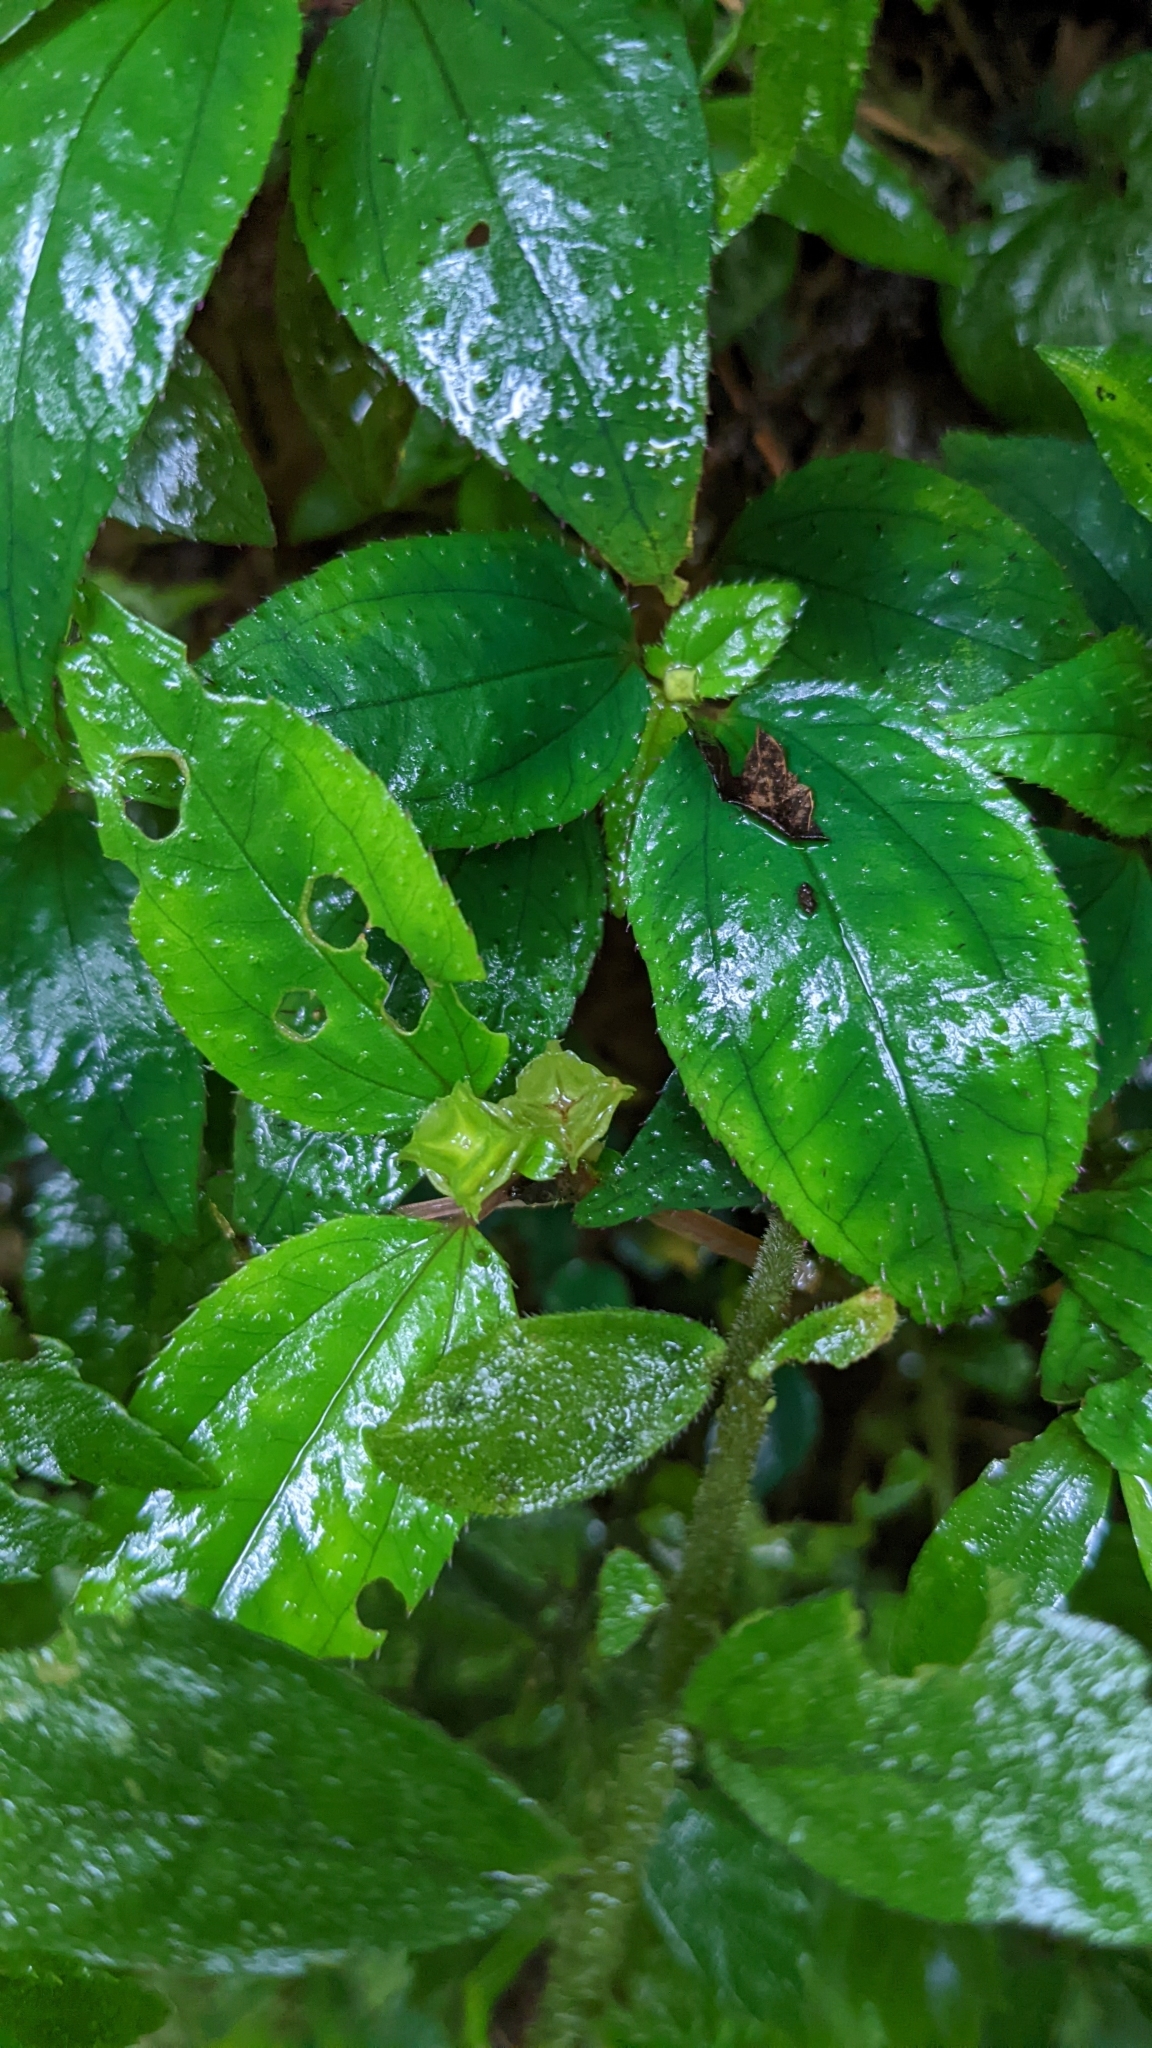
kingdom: Plantae
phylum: Tracheophyta
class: Magnoliopsida
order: Myrtales
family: Melastomataceae
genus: Sarcopyramis
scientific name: Sarcopyramis napalensis
